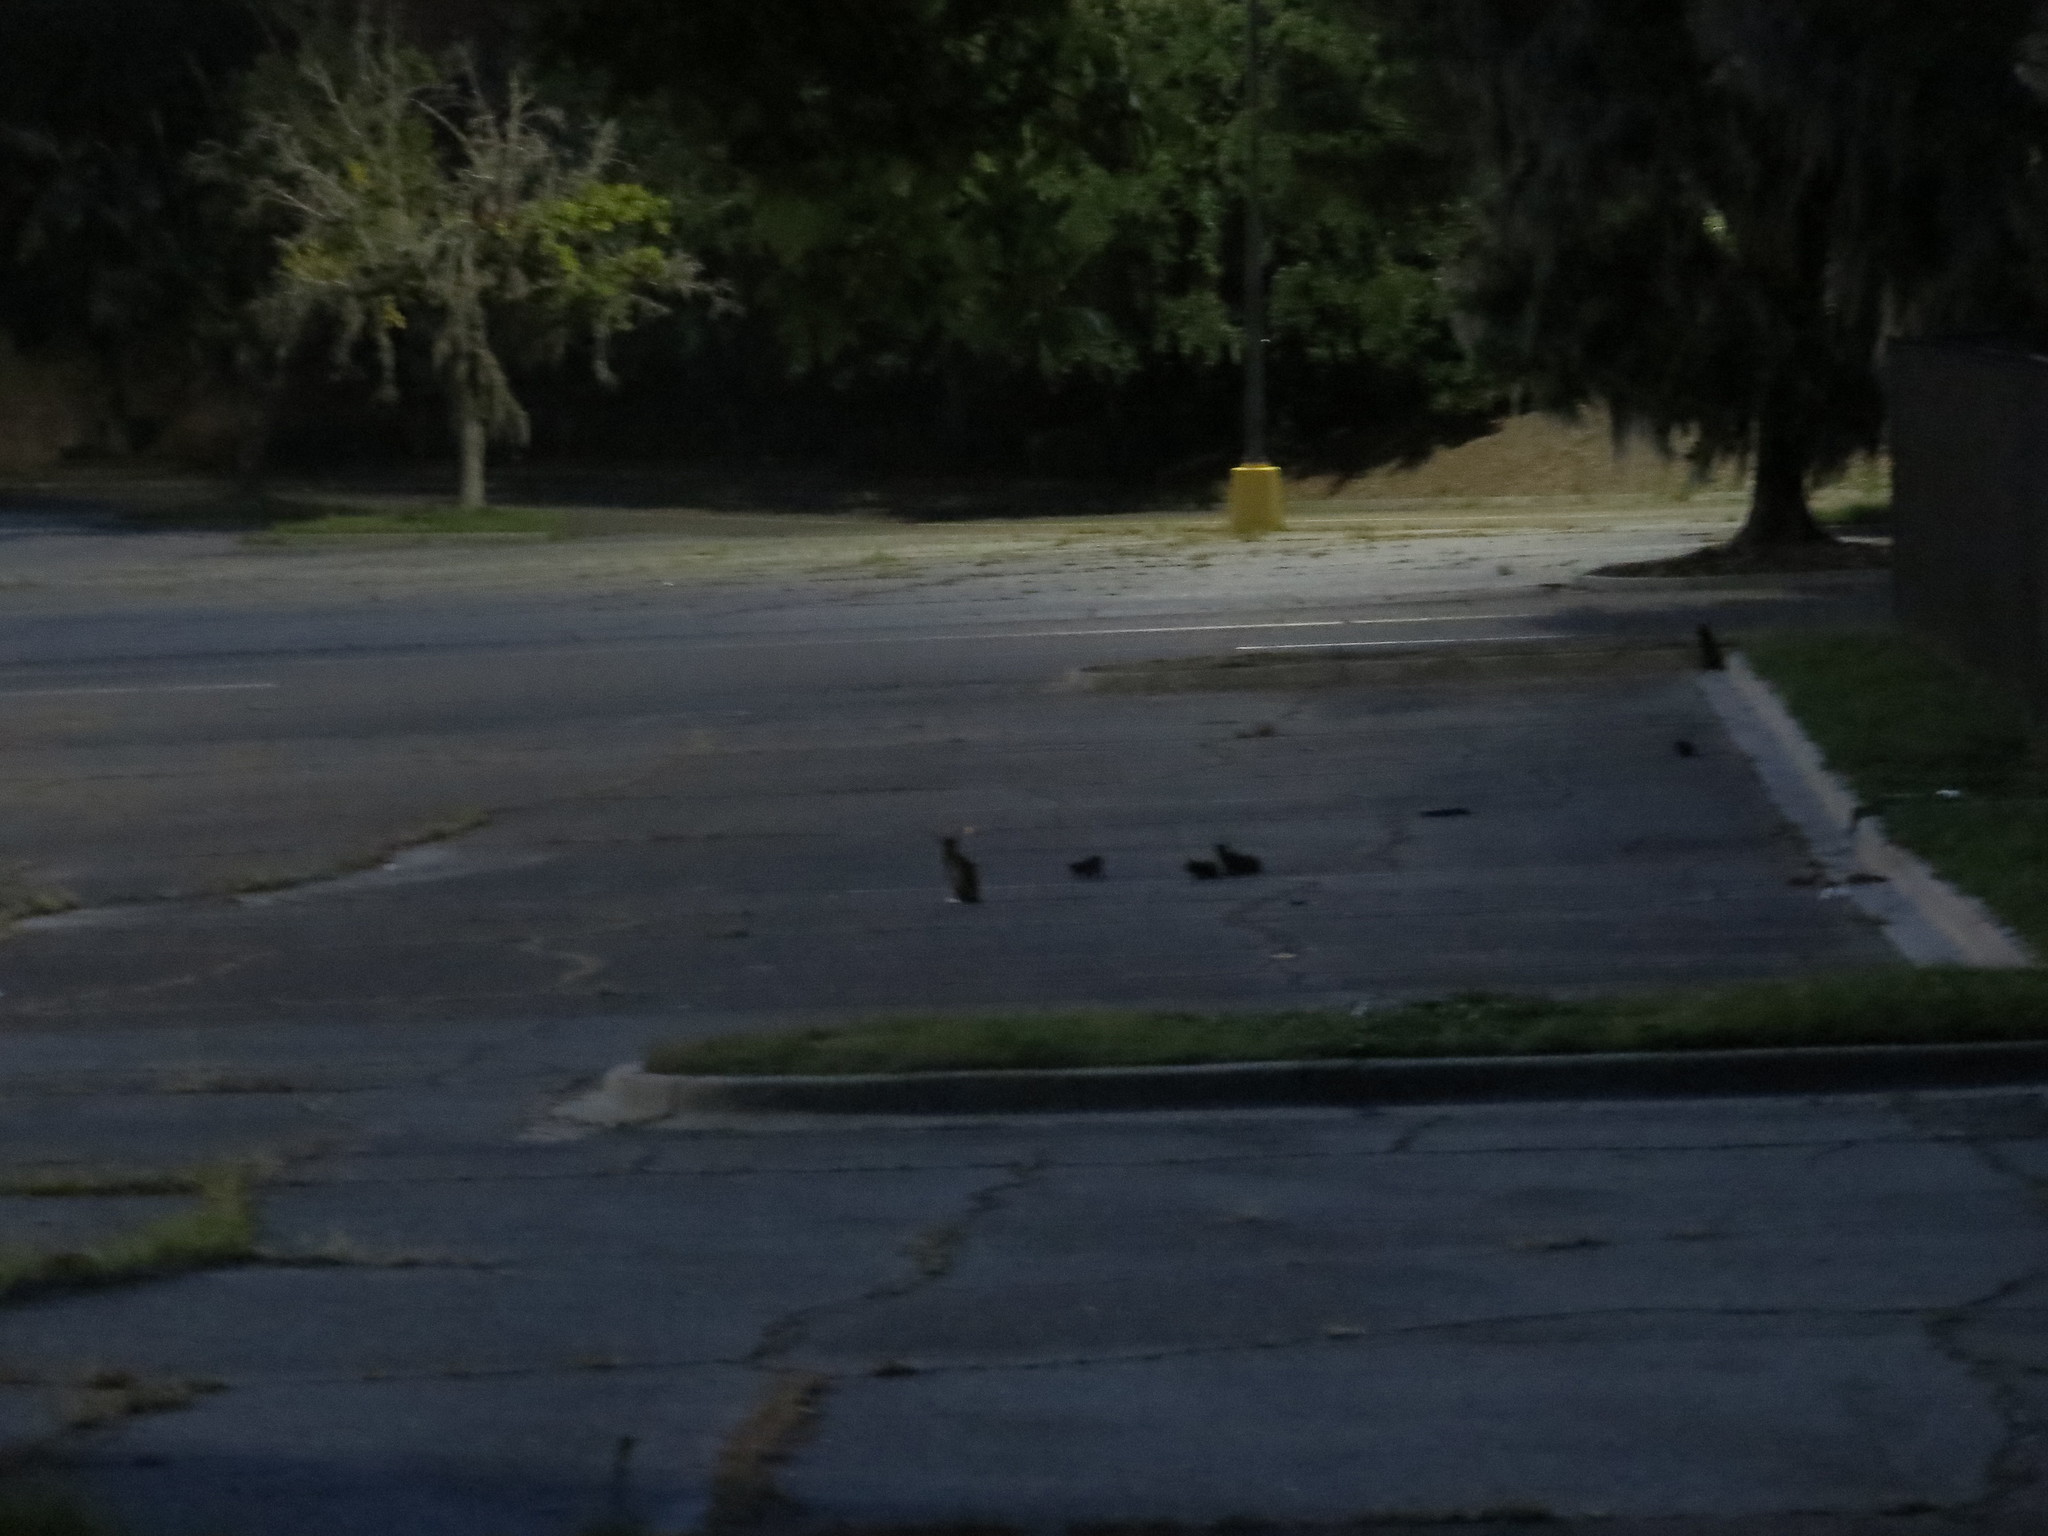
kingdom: Animalia
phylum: Chordata
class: Mammalia
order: Carnivora
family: Felidae
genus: Felis
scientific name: Felis catus
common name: Domestic cat
